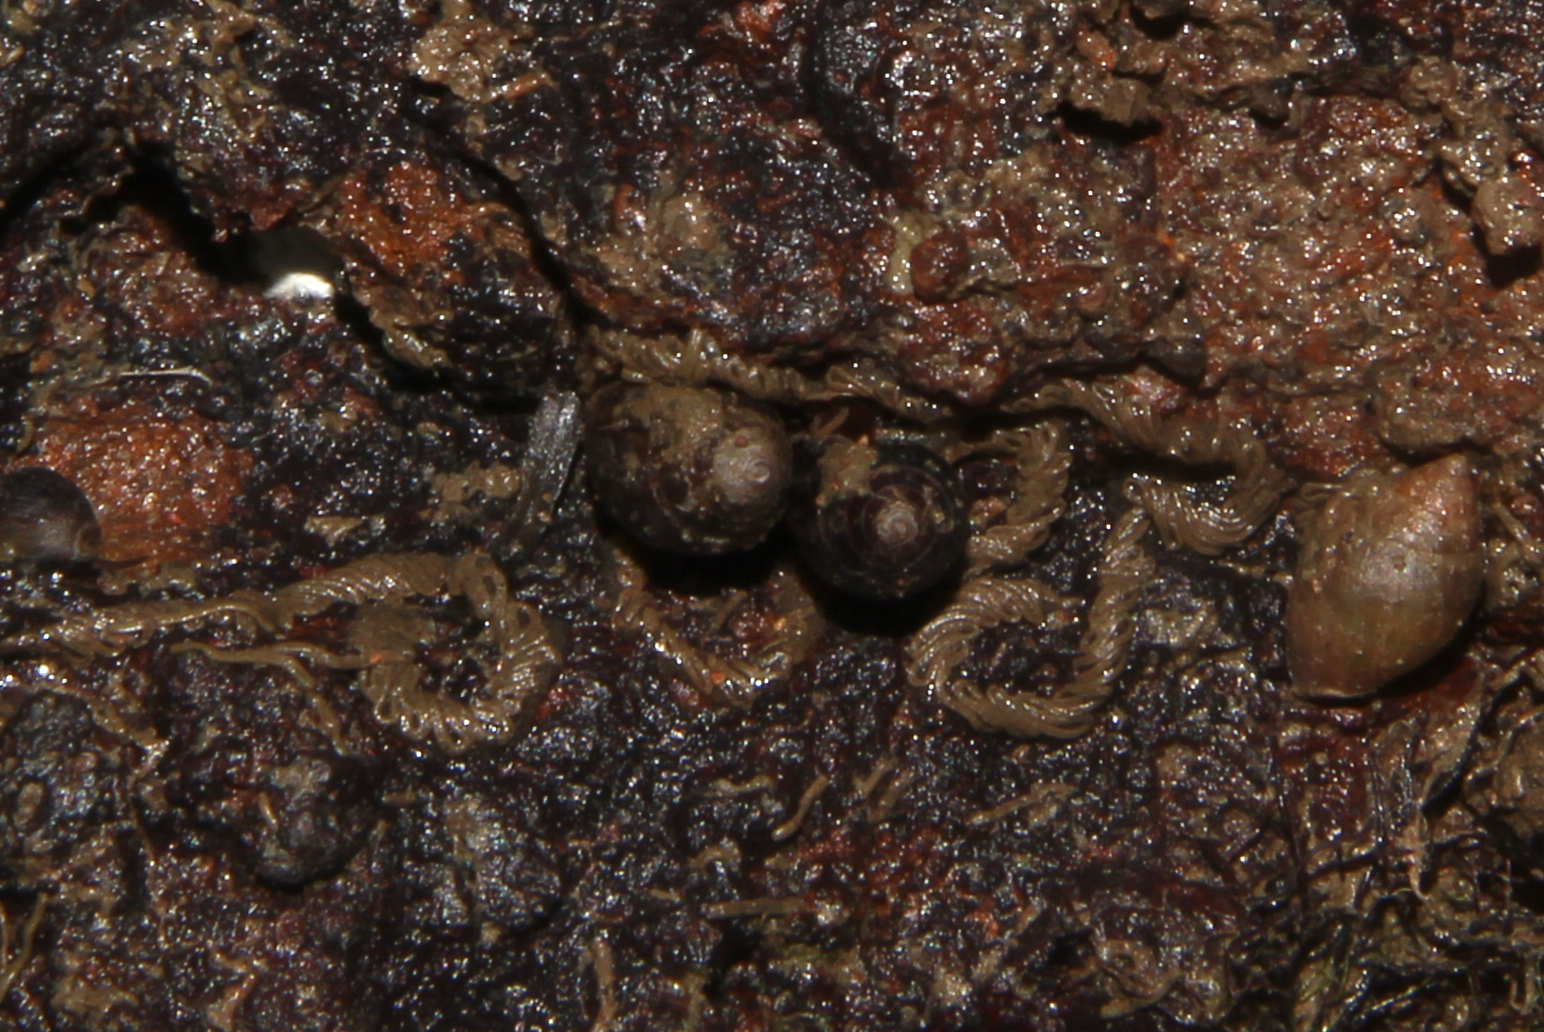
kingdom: Animalia
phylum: Mollusca
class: Gastropoda
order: Ellobiida
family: Ellobiidae
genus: Pleuroloba
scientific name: Pleuroloba costellaris
